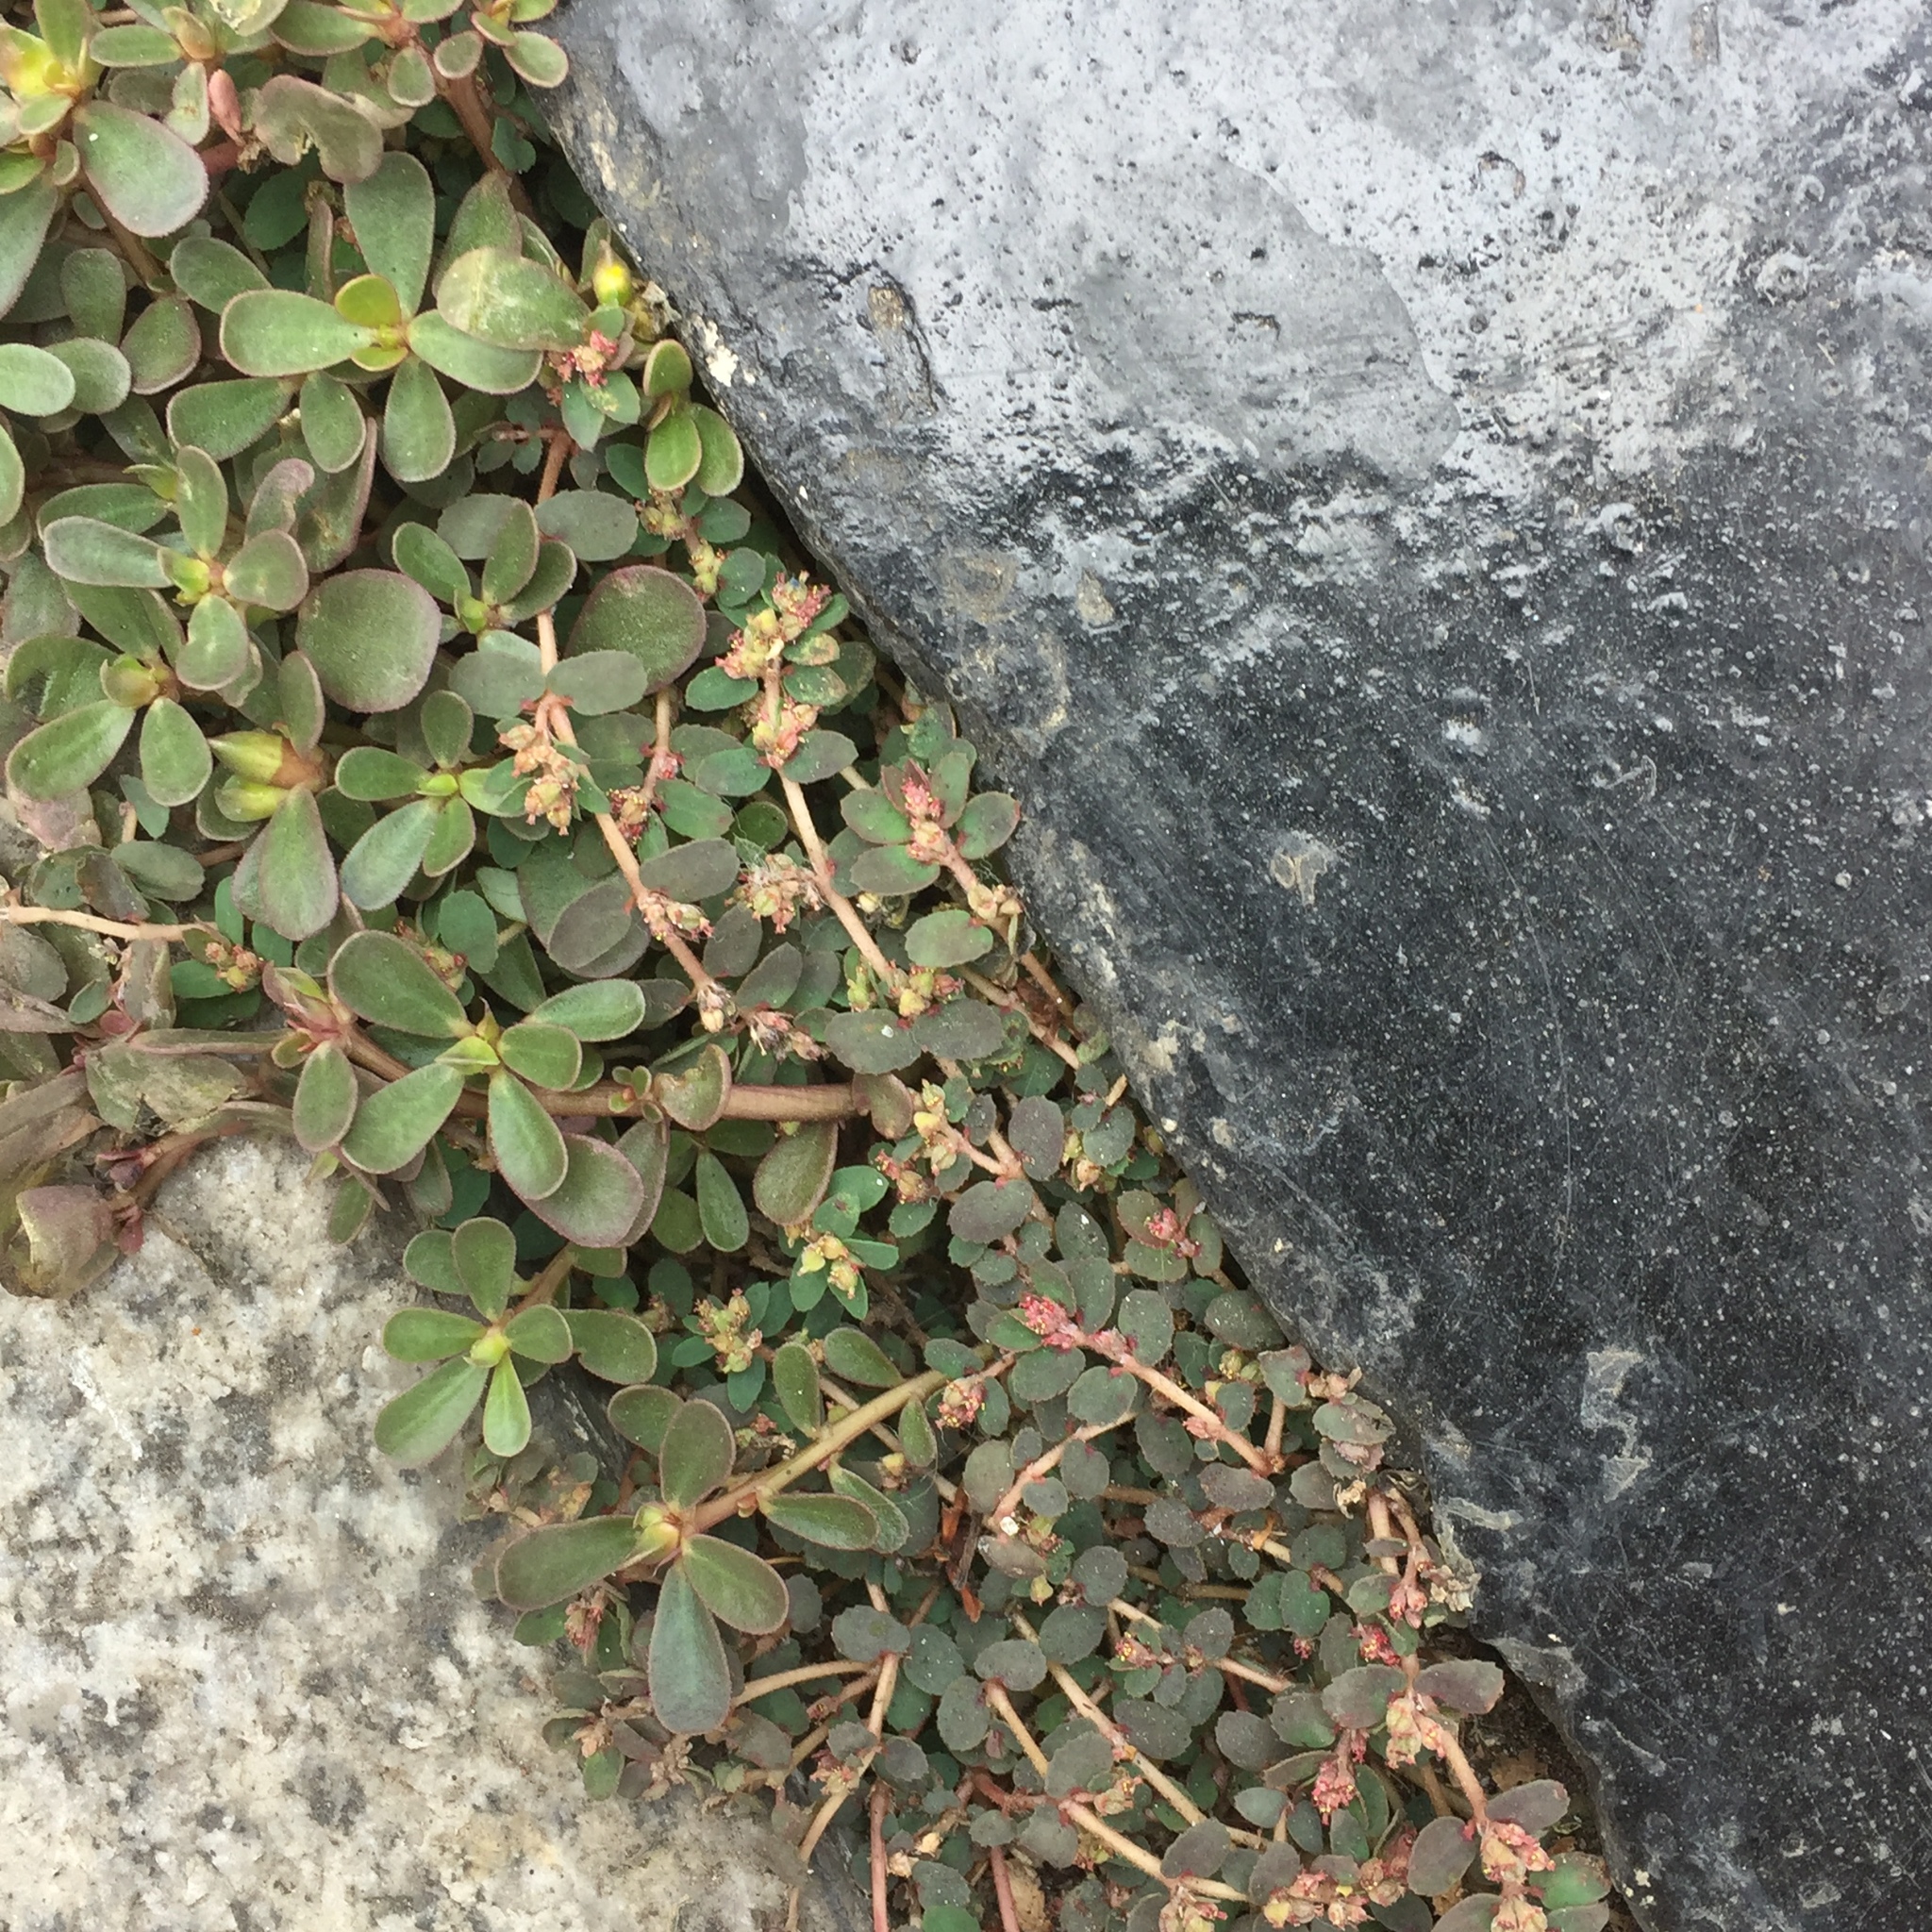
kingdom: Plantae
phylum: Tracheophyta
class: Magnoliopsida
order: Malpighiales
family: Euphorbiaceae
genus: Euphorbia
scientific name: Euphorbia thymifolia
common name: Gulf sandmat
